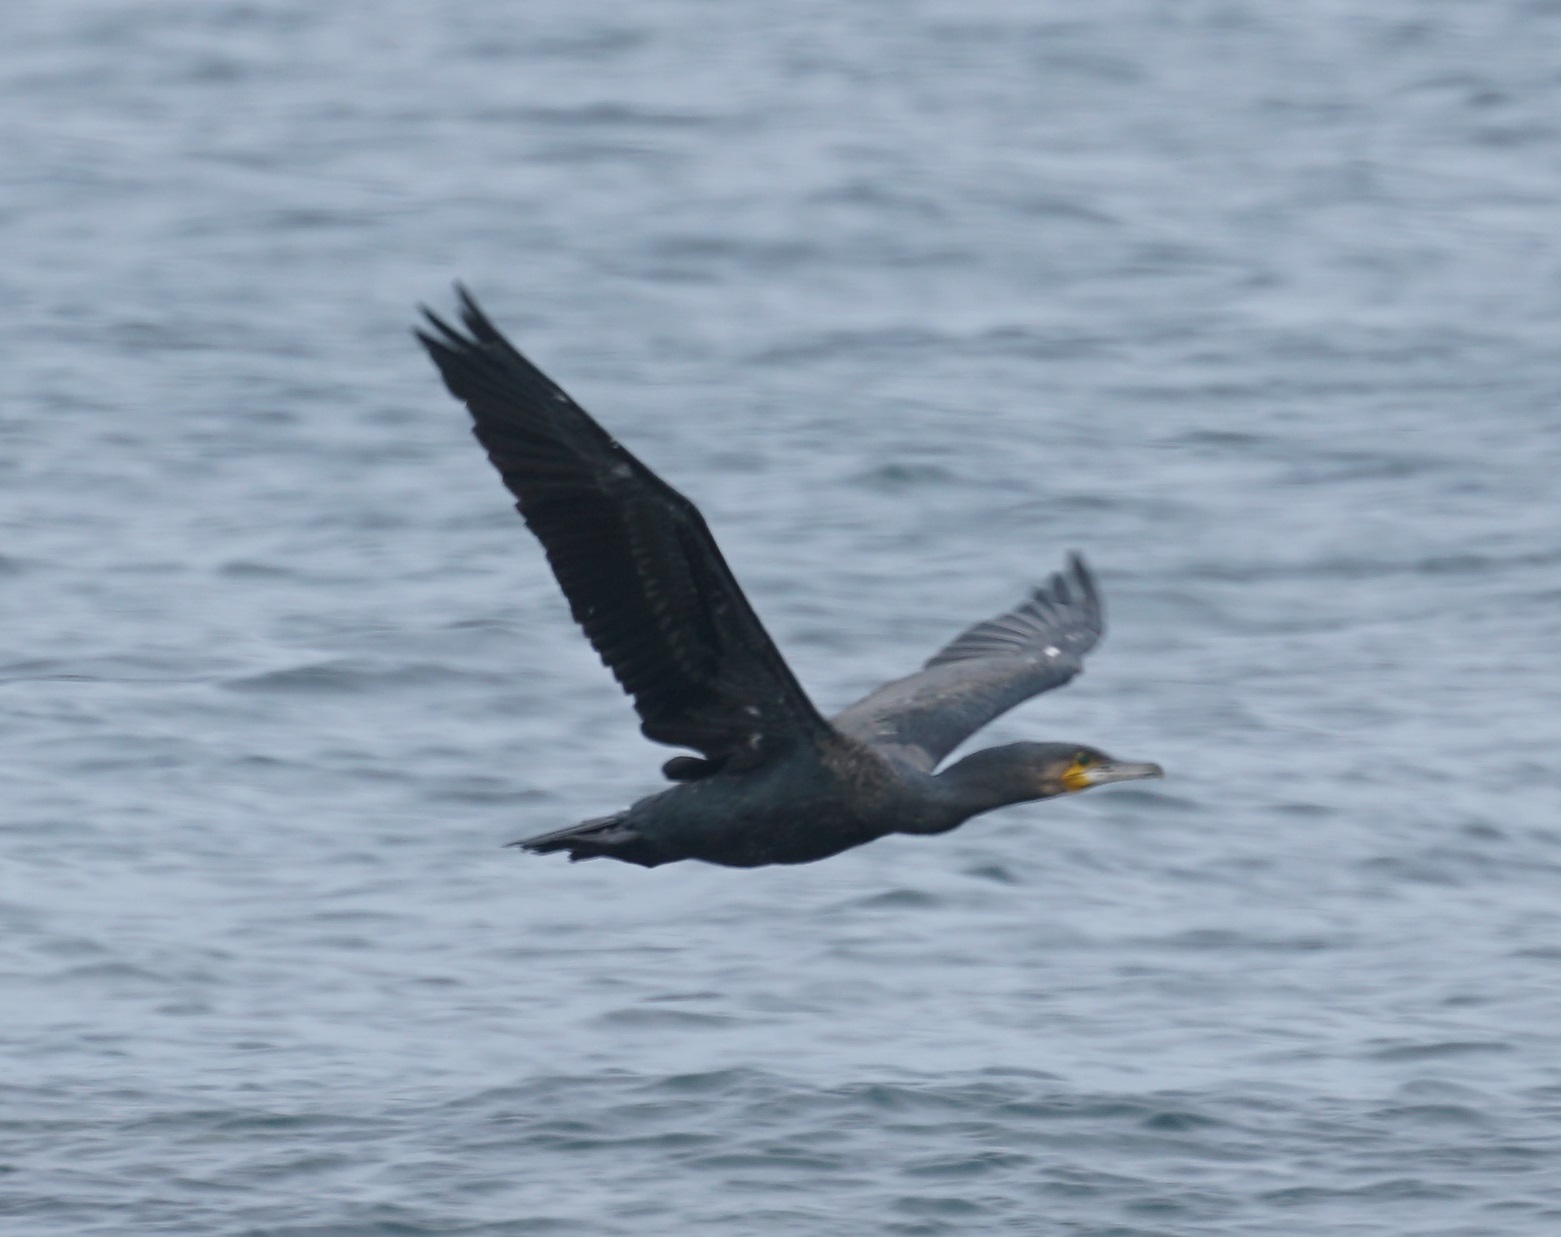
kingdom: Animalia
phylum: Chordata
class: Aves
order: Suliformes
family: Phalacrocoracidae
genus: Phalacrocorax
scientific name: Phalacrocorax carbo
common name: Great cormorant
